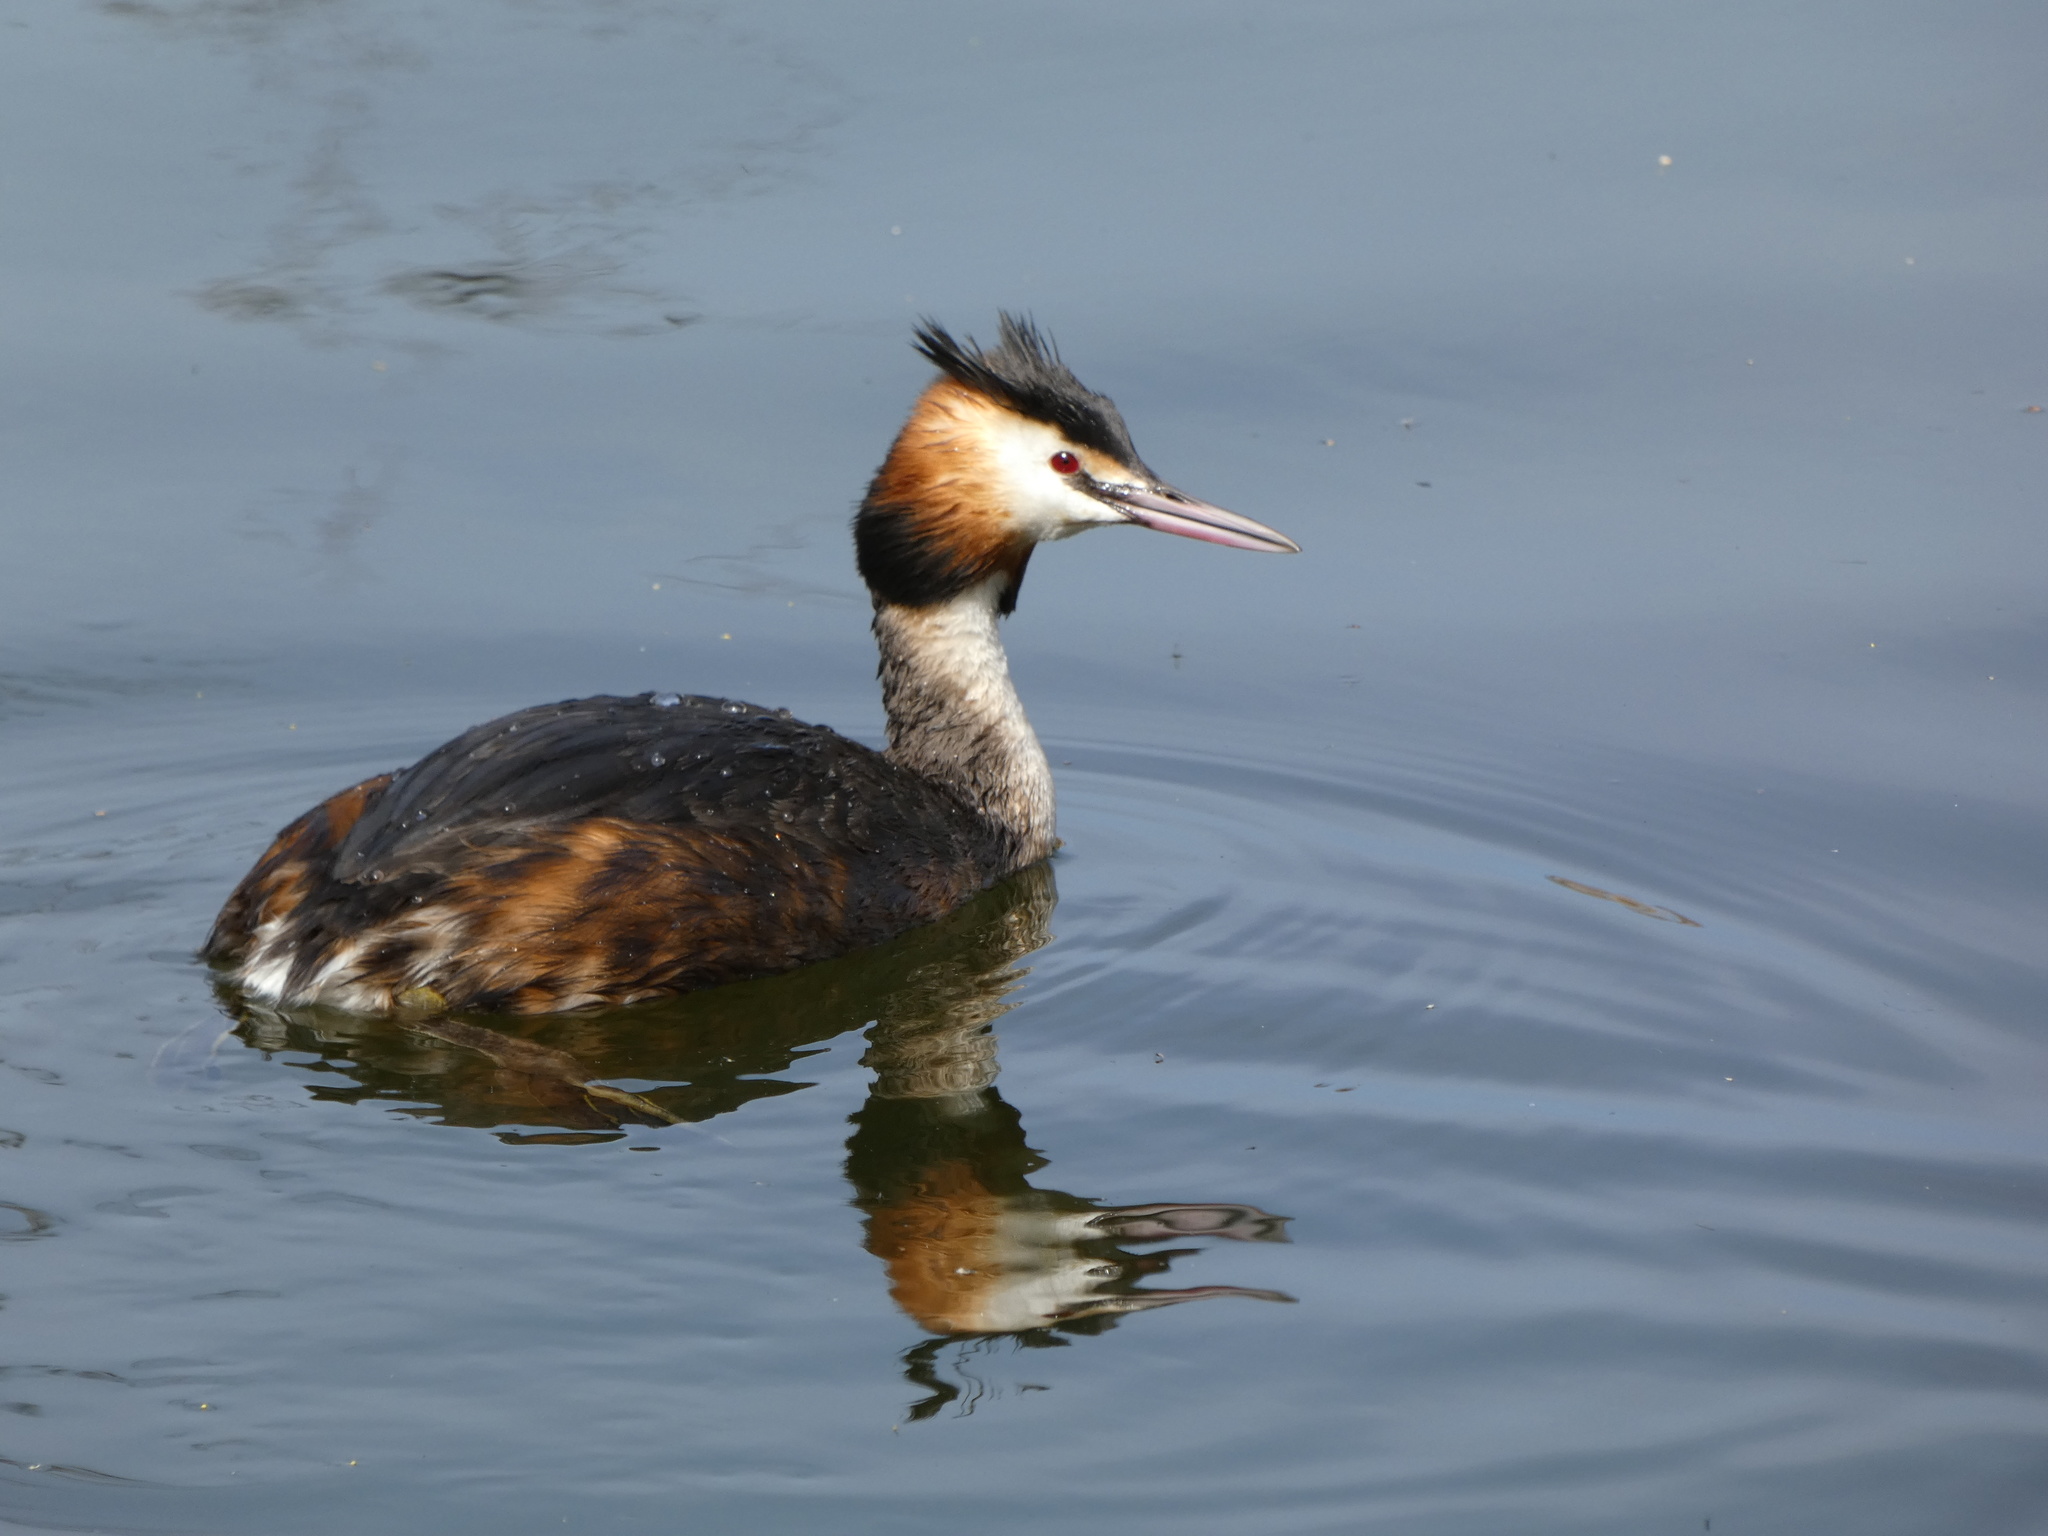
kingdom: Animalia
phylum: Chordata
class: Aves
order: Podicipediformes
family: Podicipedidae
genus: Podiceps
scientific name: Podiceps cristatus
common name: Great crested grebe
